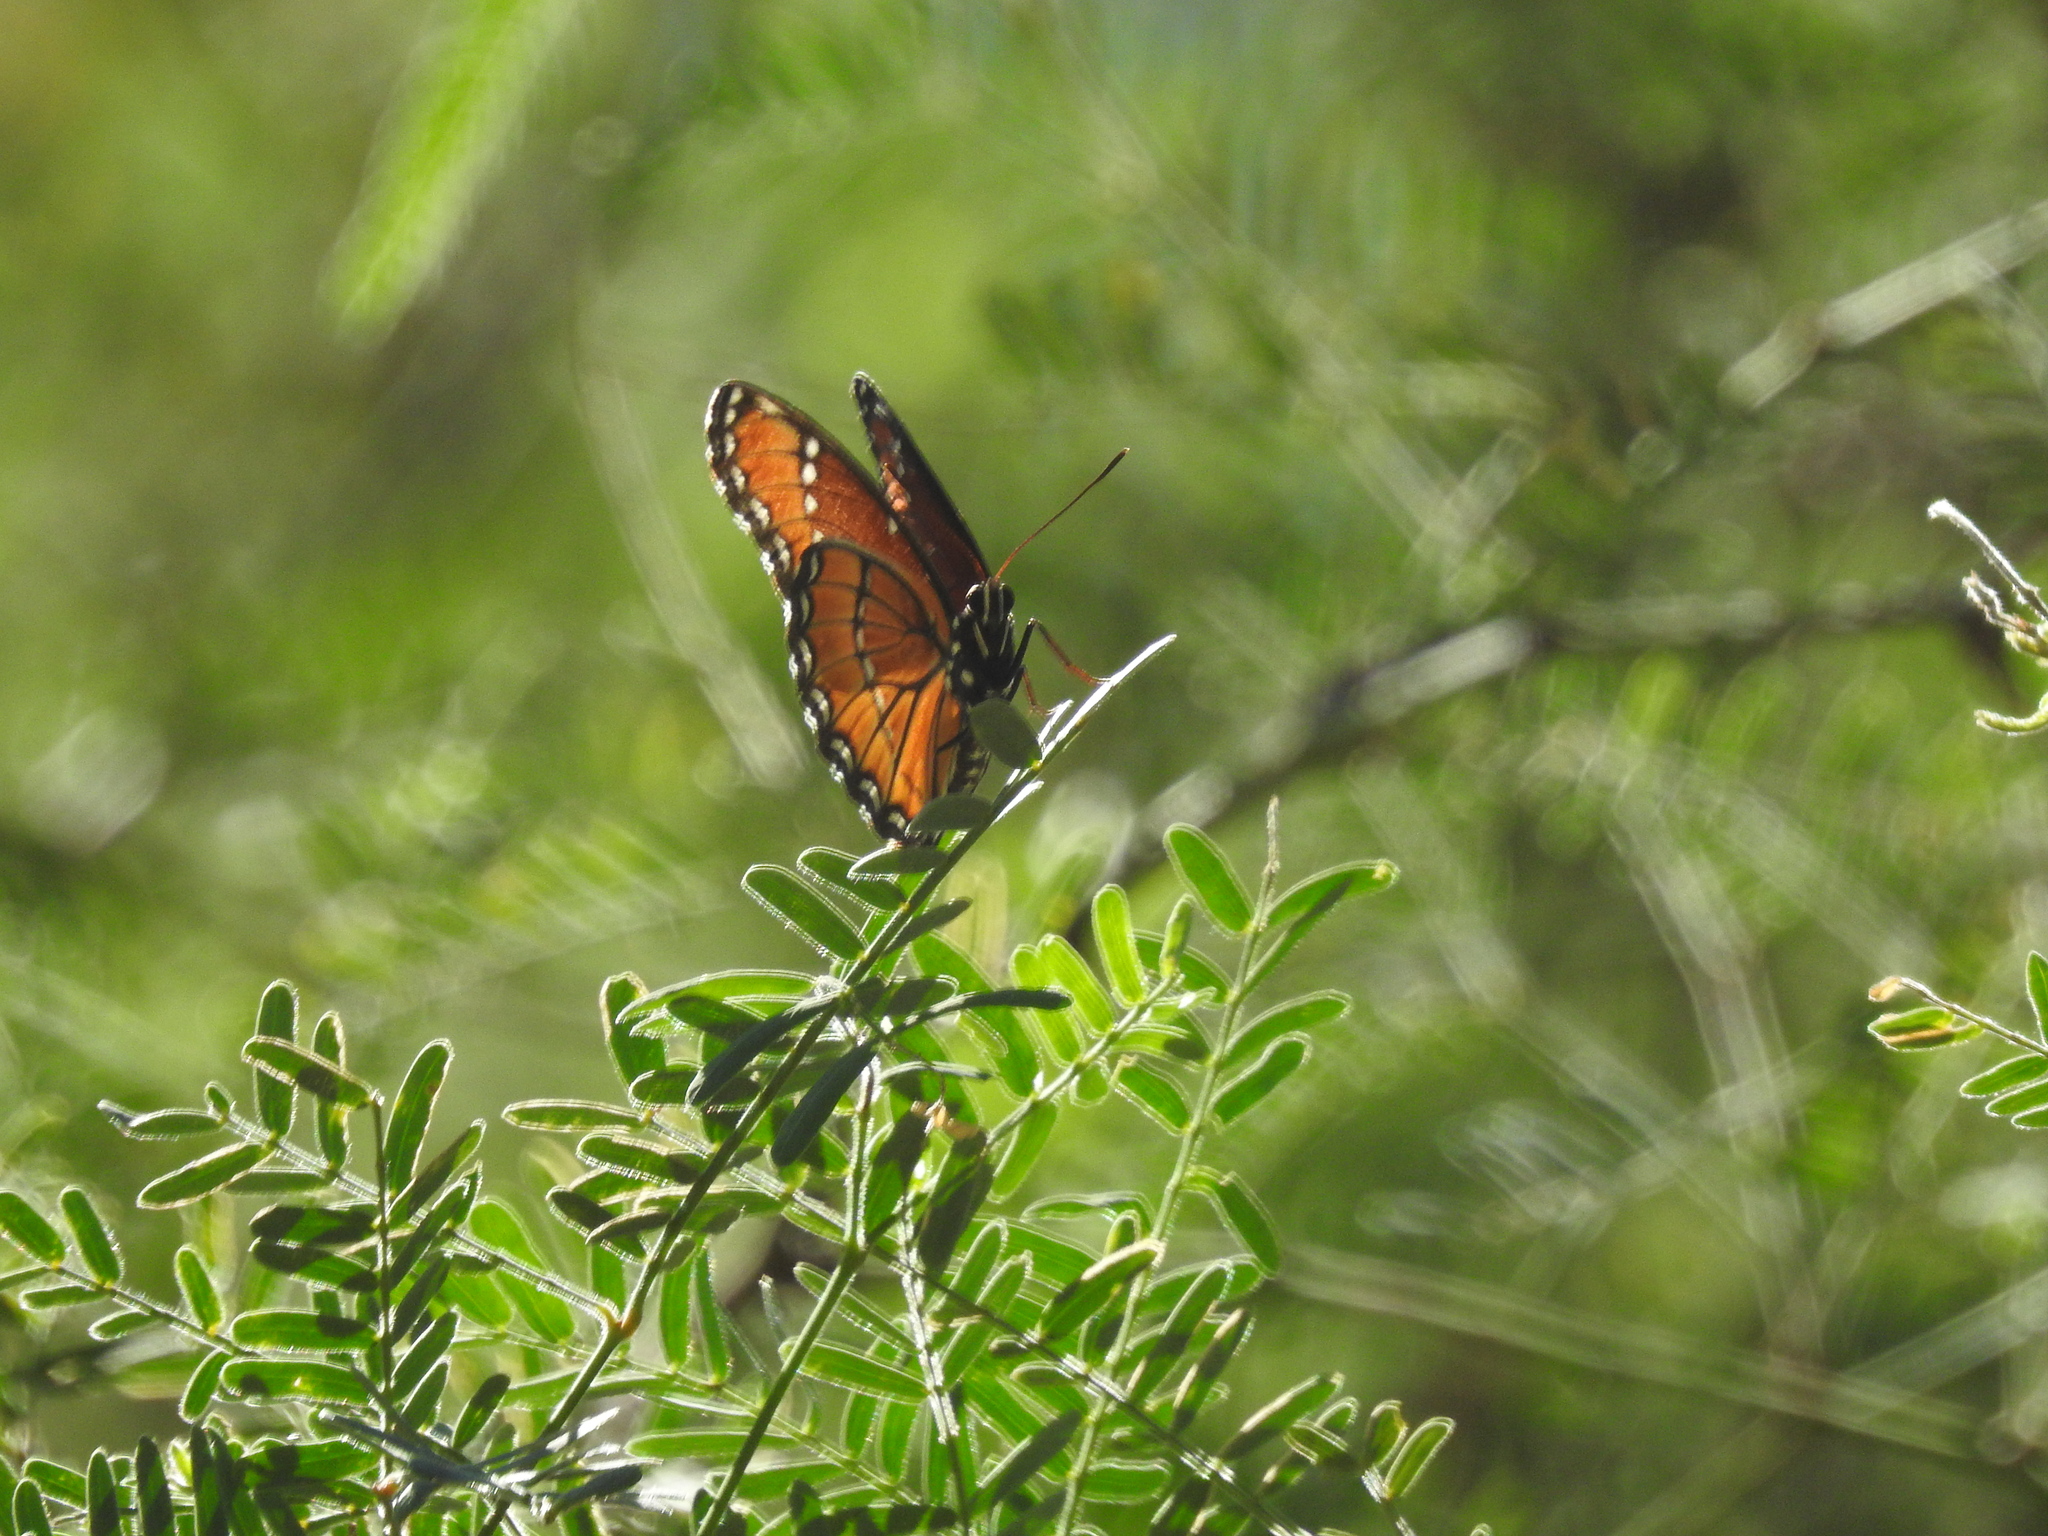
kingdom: Animalia
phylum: Arthropoda
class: Insecta
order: Lepidoptera
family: Nymphalidae
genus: Limenitis
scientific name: Limenitis archippus
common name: Viceroy
